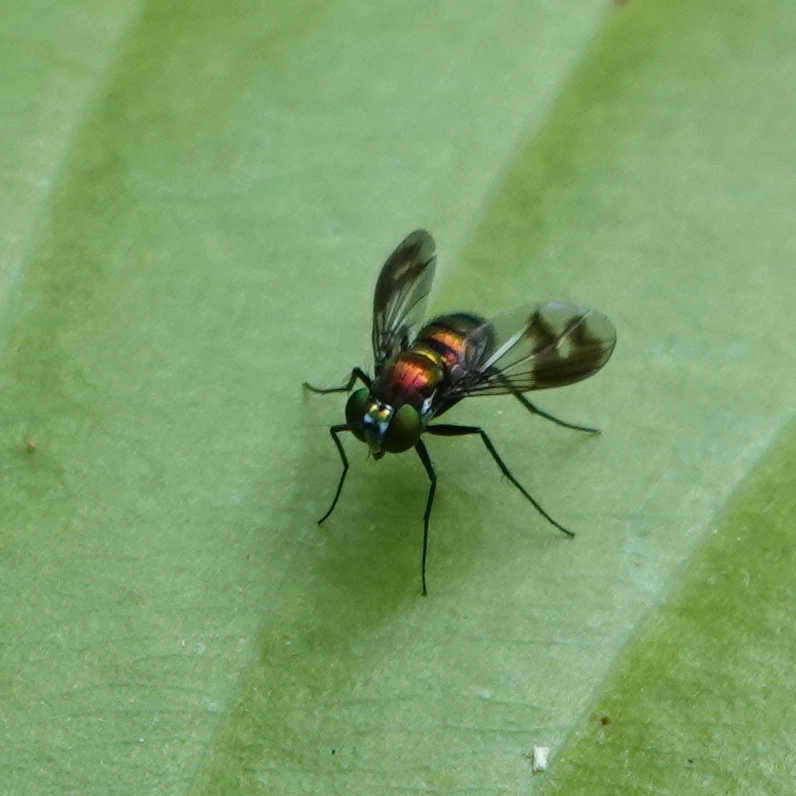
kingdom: Animalia
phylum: Arthropoda
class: Insecta
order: Diptera
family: Dolichopodidae
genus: Condylostylus
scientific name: Condylostylus patibulatus
